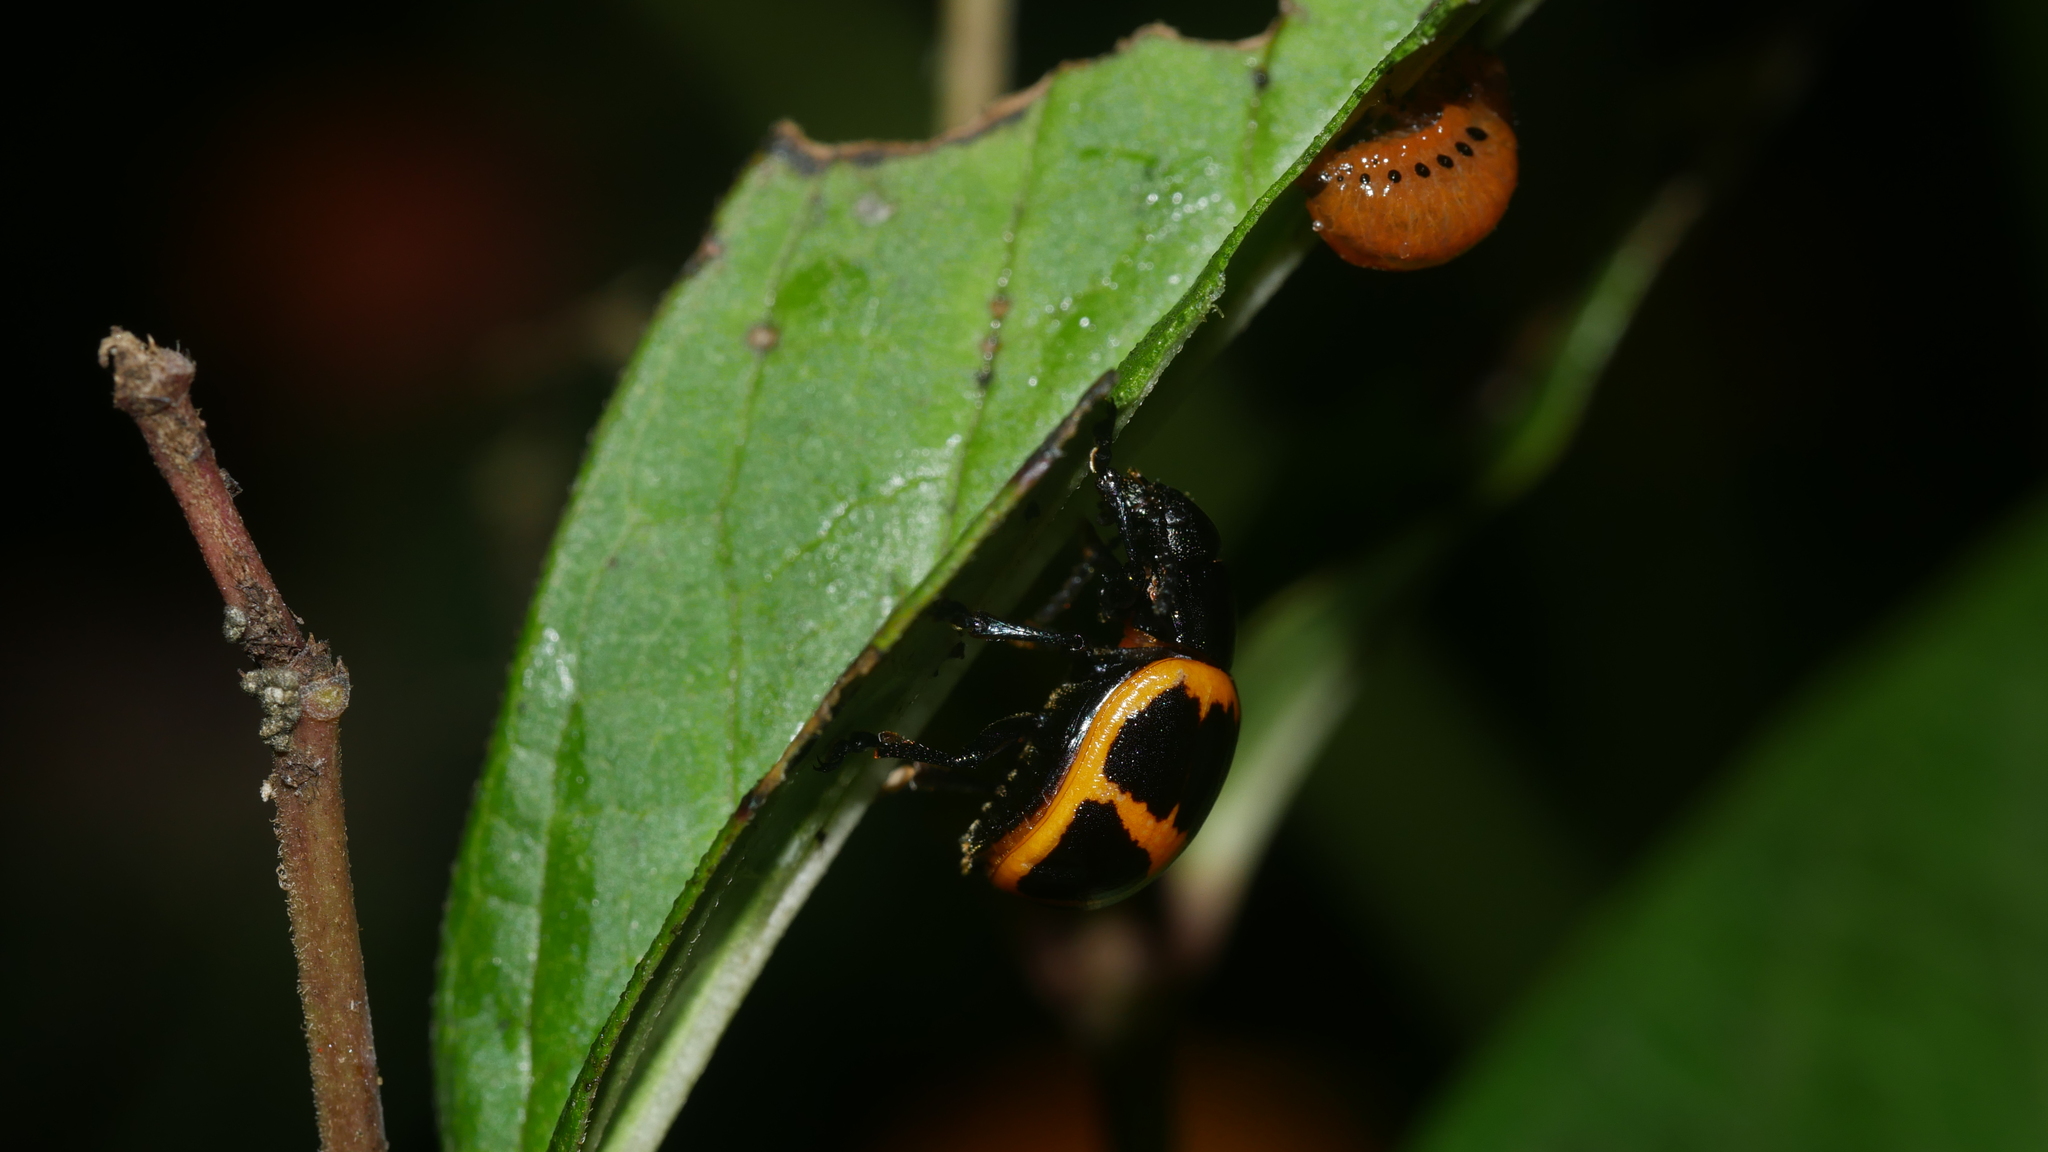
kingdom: Animalia
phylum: Arthropoda
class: Insecta
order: Coleoptera
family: Chrysomelidae
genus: Labidomera
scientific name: Labidomera clivicollis
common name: Swamp milkweed leaf beetle
